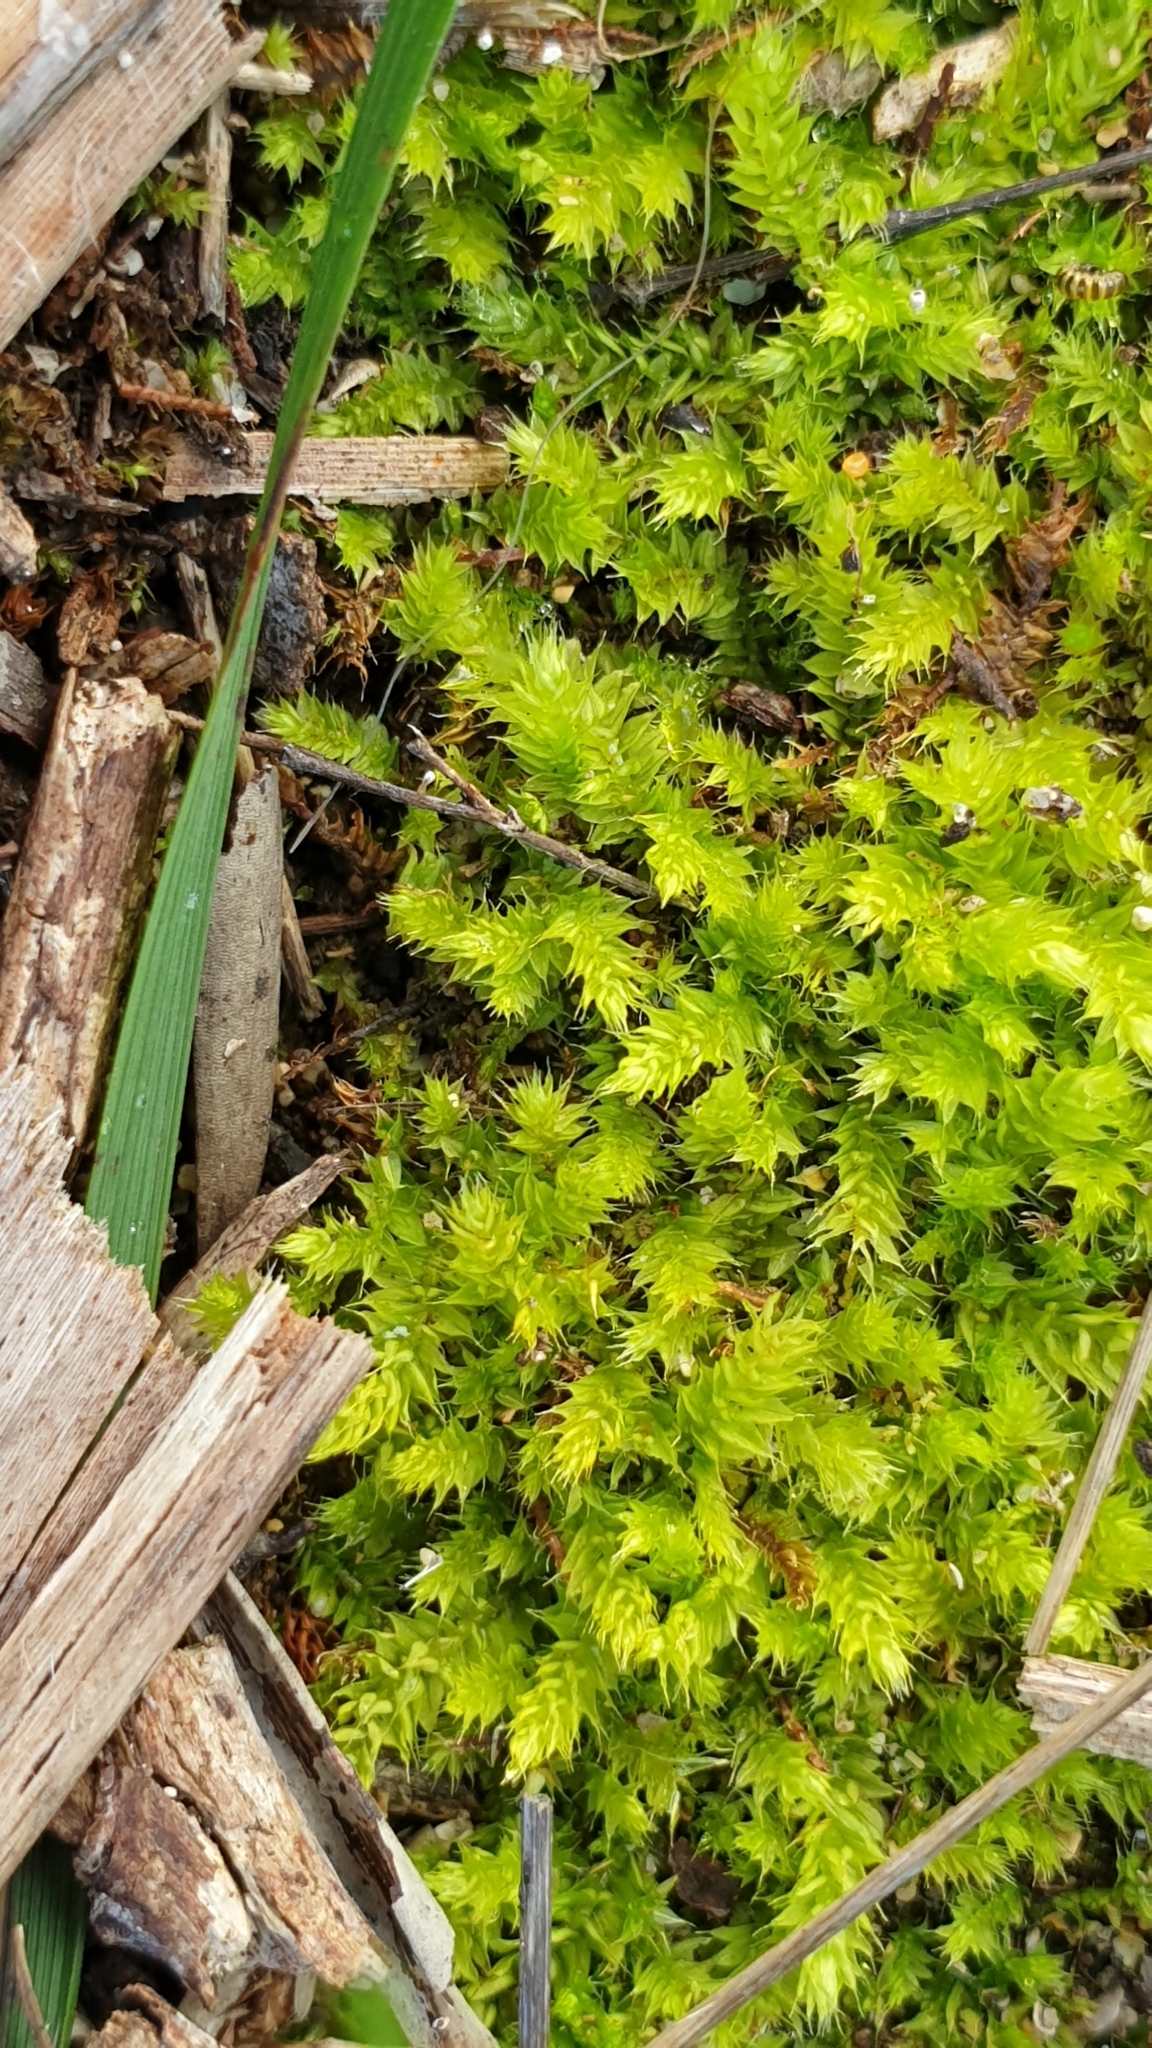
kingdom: Plantae
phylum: Bryophyta
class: Bryopsida
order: Hypnodendrales
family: Racopilaceae
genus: Racopilum
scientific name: Racopilum cuspidigerum
